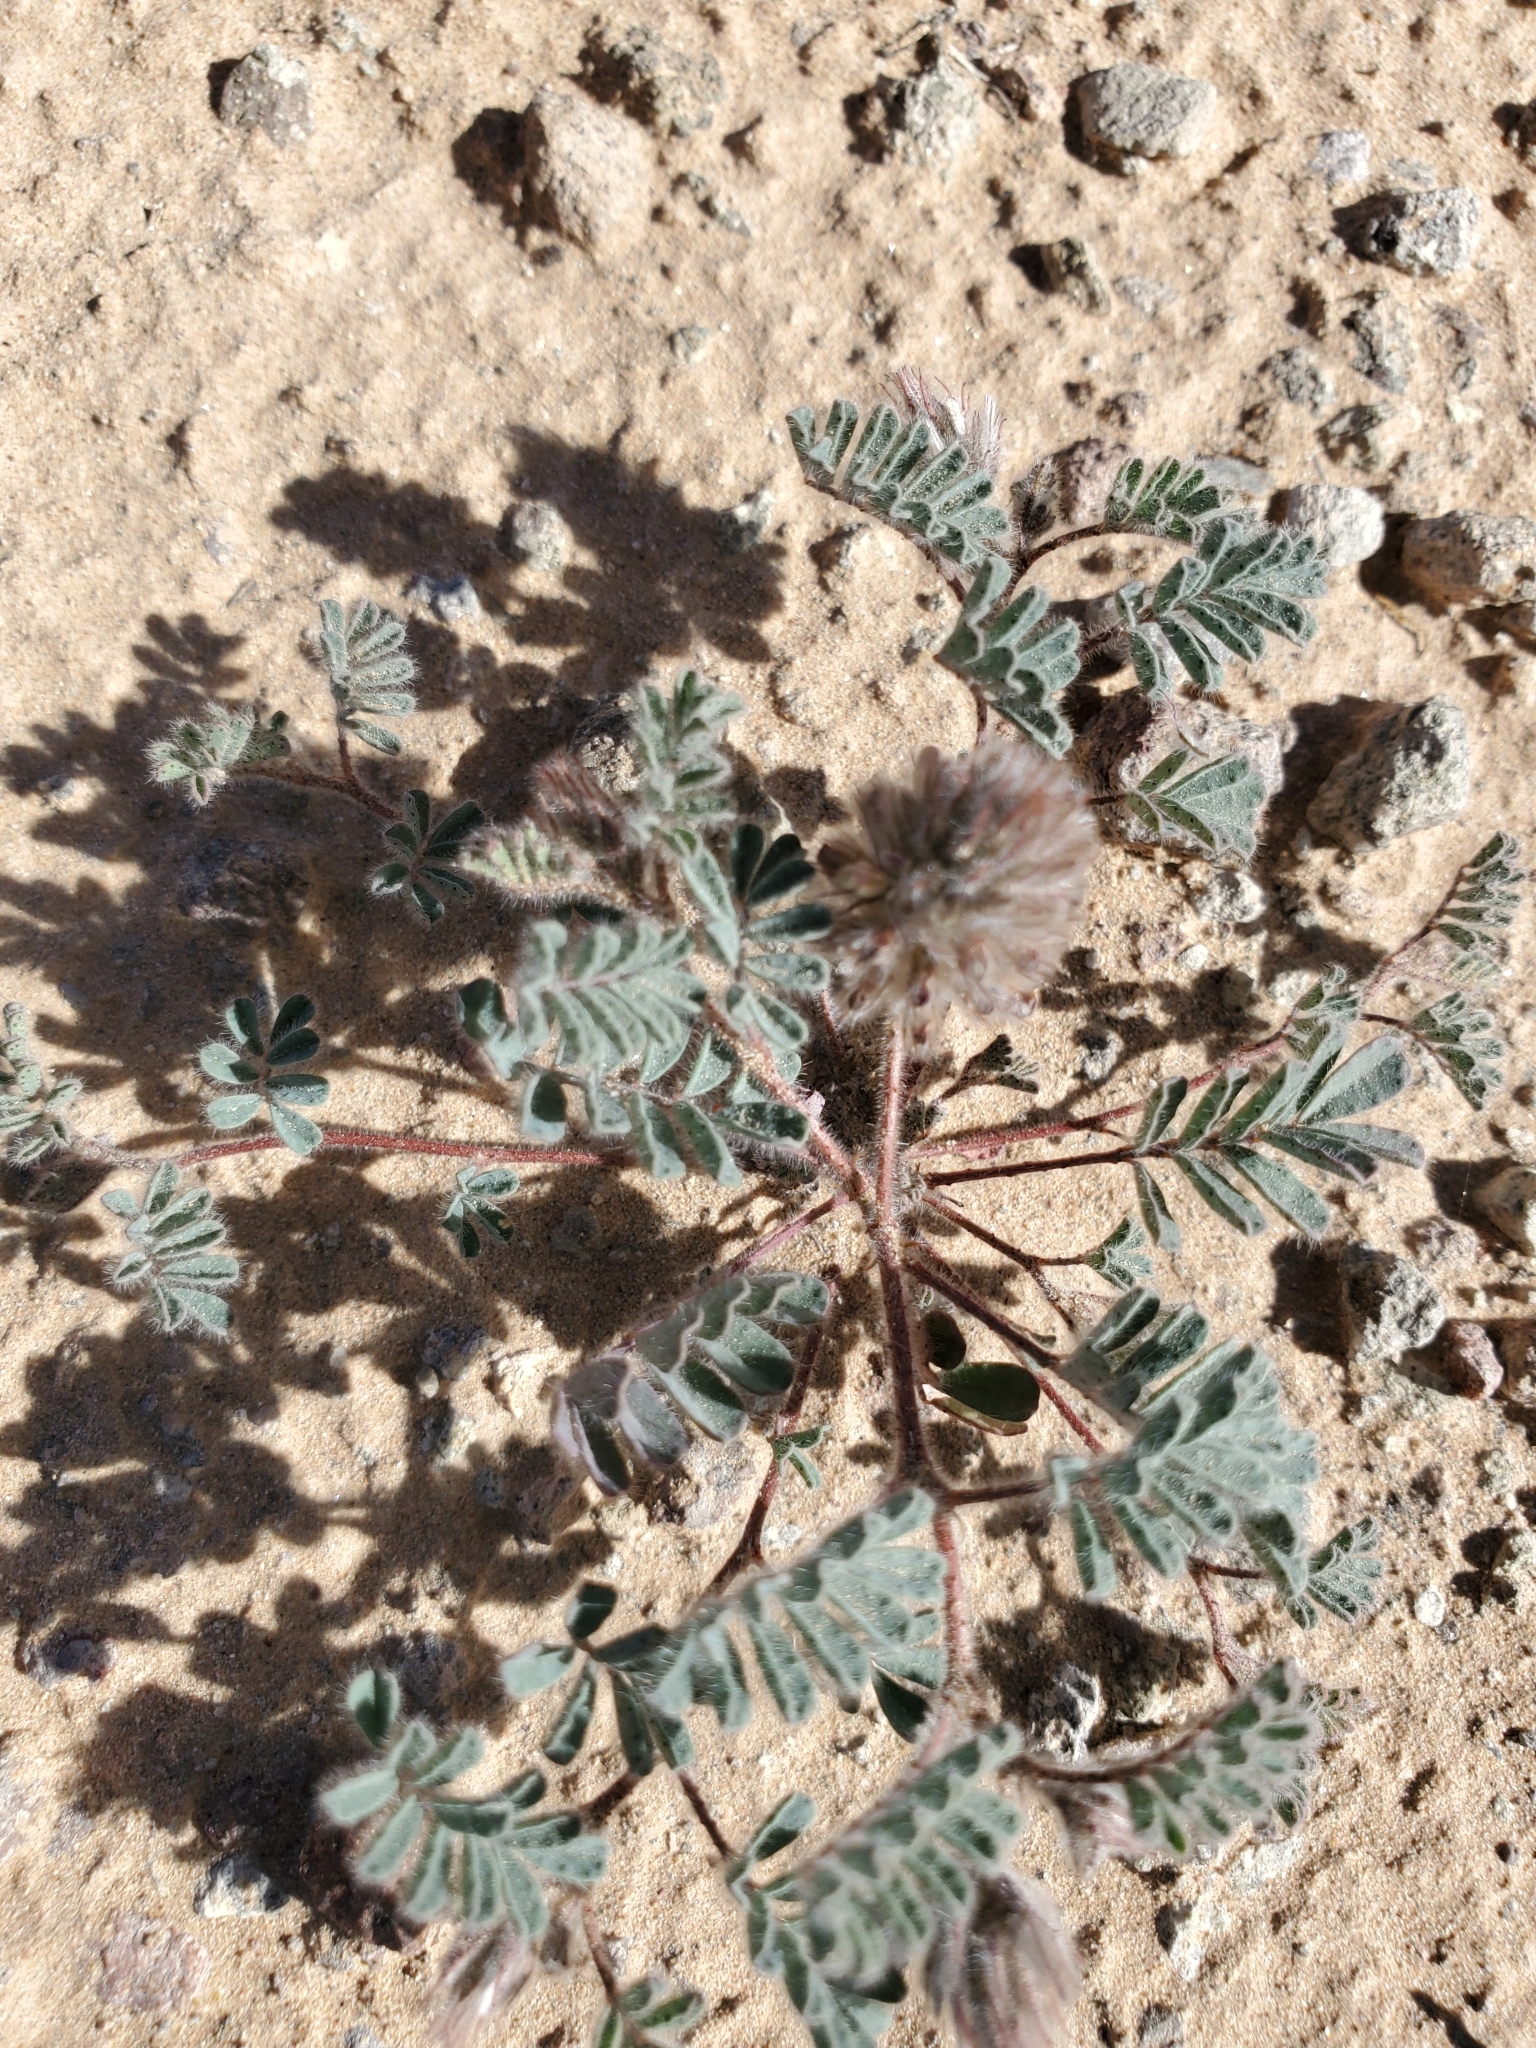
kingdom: Plantae
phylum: Tracheophyta
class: Magnoliopsida
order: Fabales
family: Fabaceae
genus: Dalea
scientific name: Dalea mollissima
